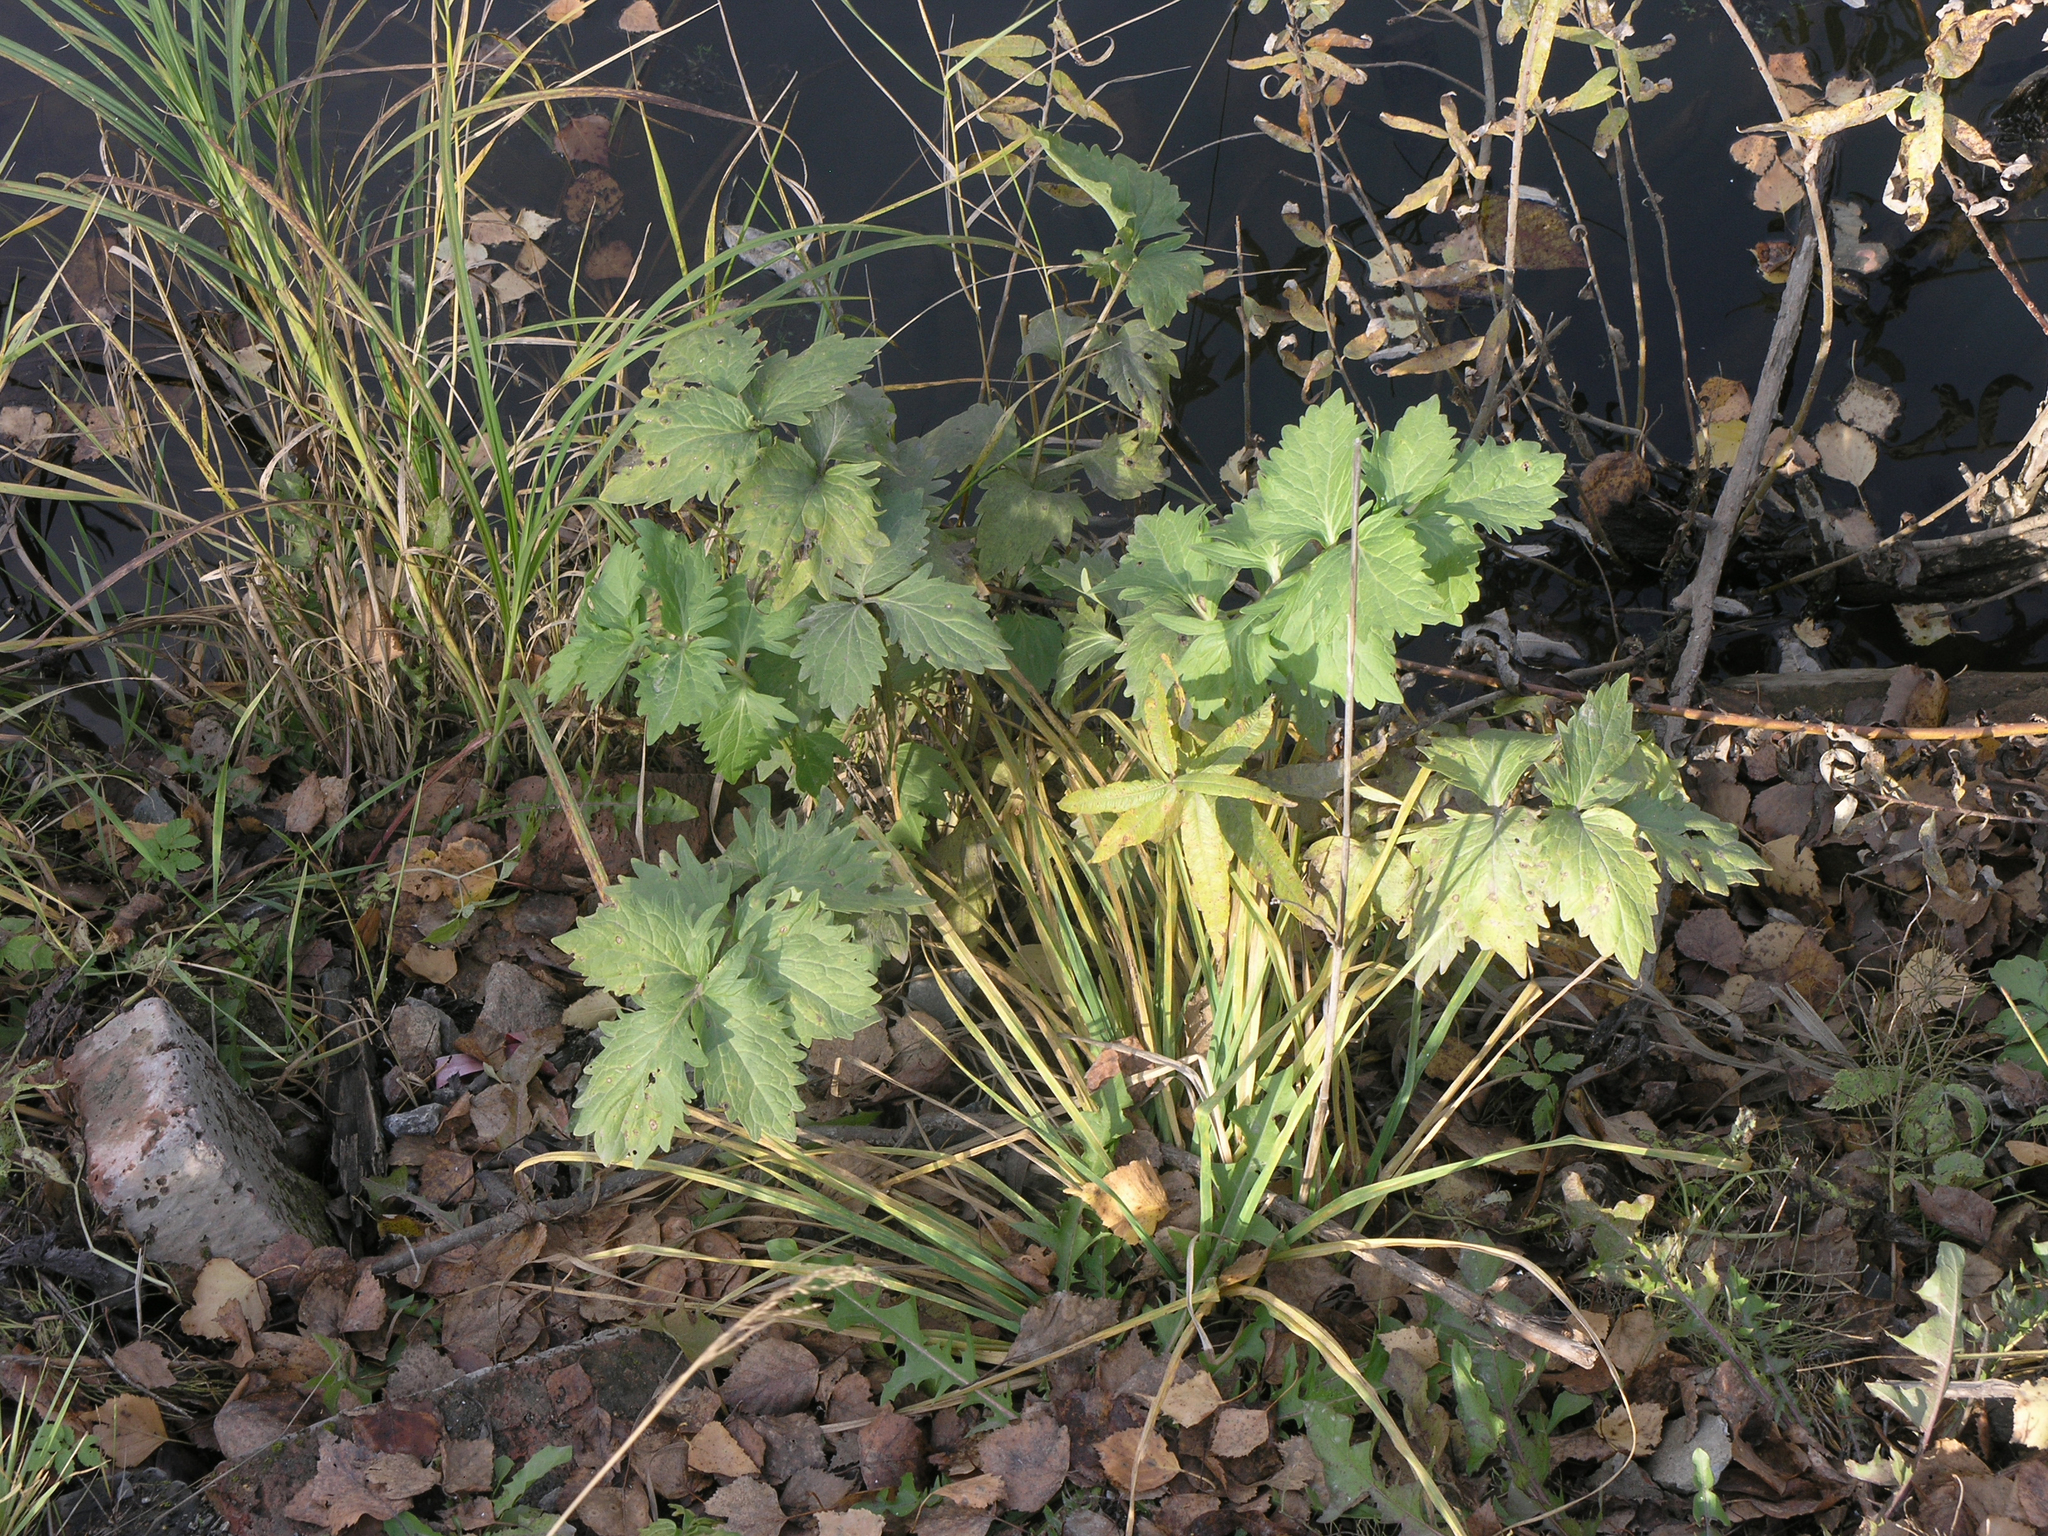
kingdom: Plantae
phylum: Tracheophyta
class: Magnoliopsida
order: Apiales
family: Apiaceae
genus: Pastinaca
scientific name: Pastinaca sativa
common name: Wild parsnip
